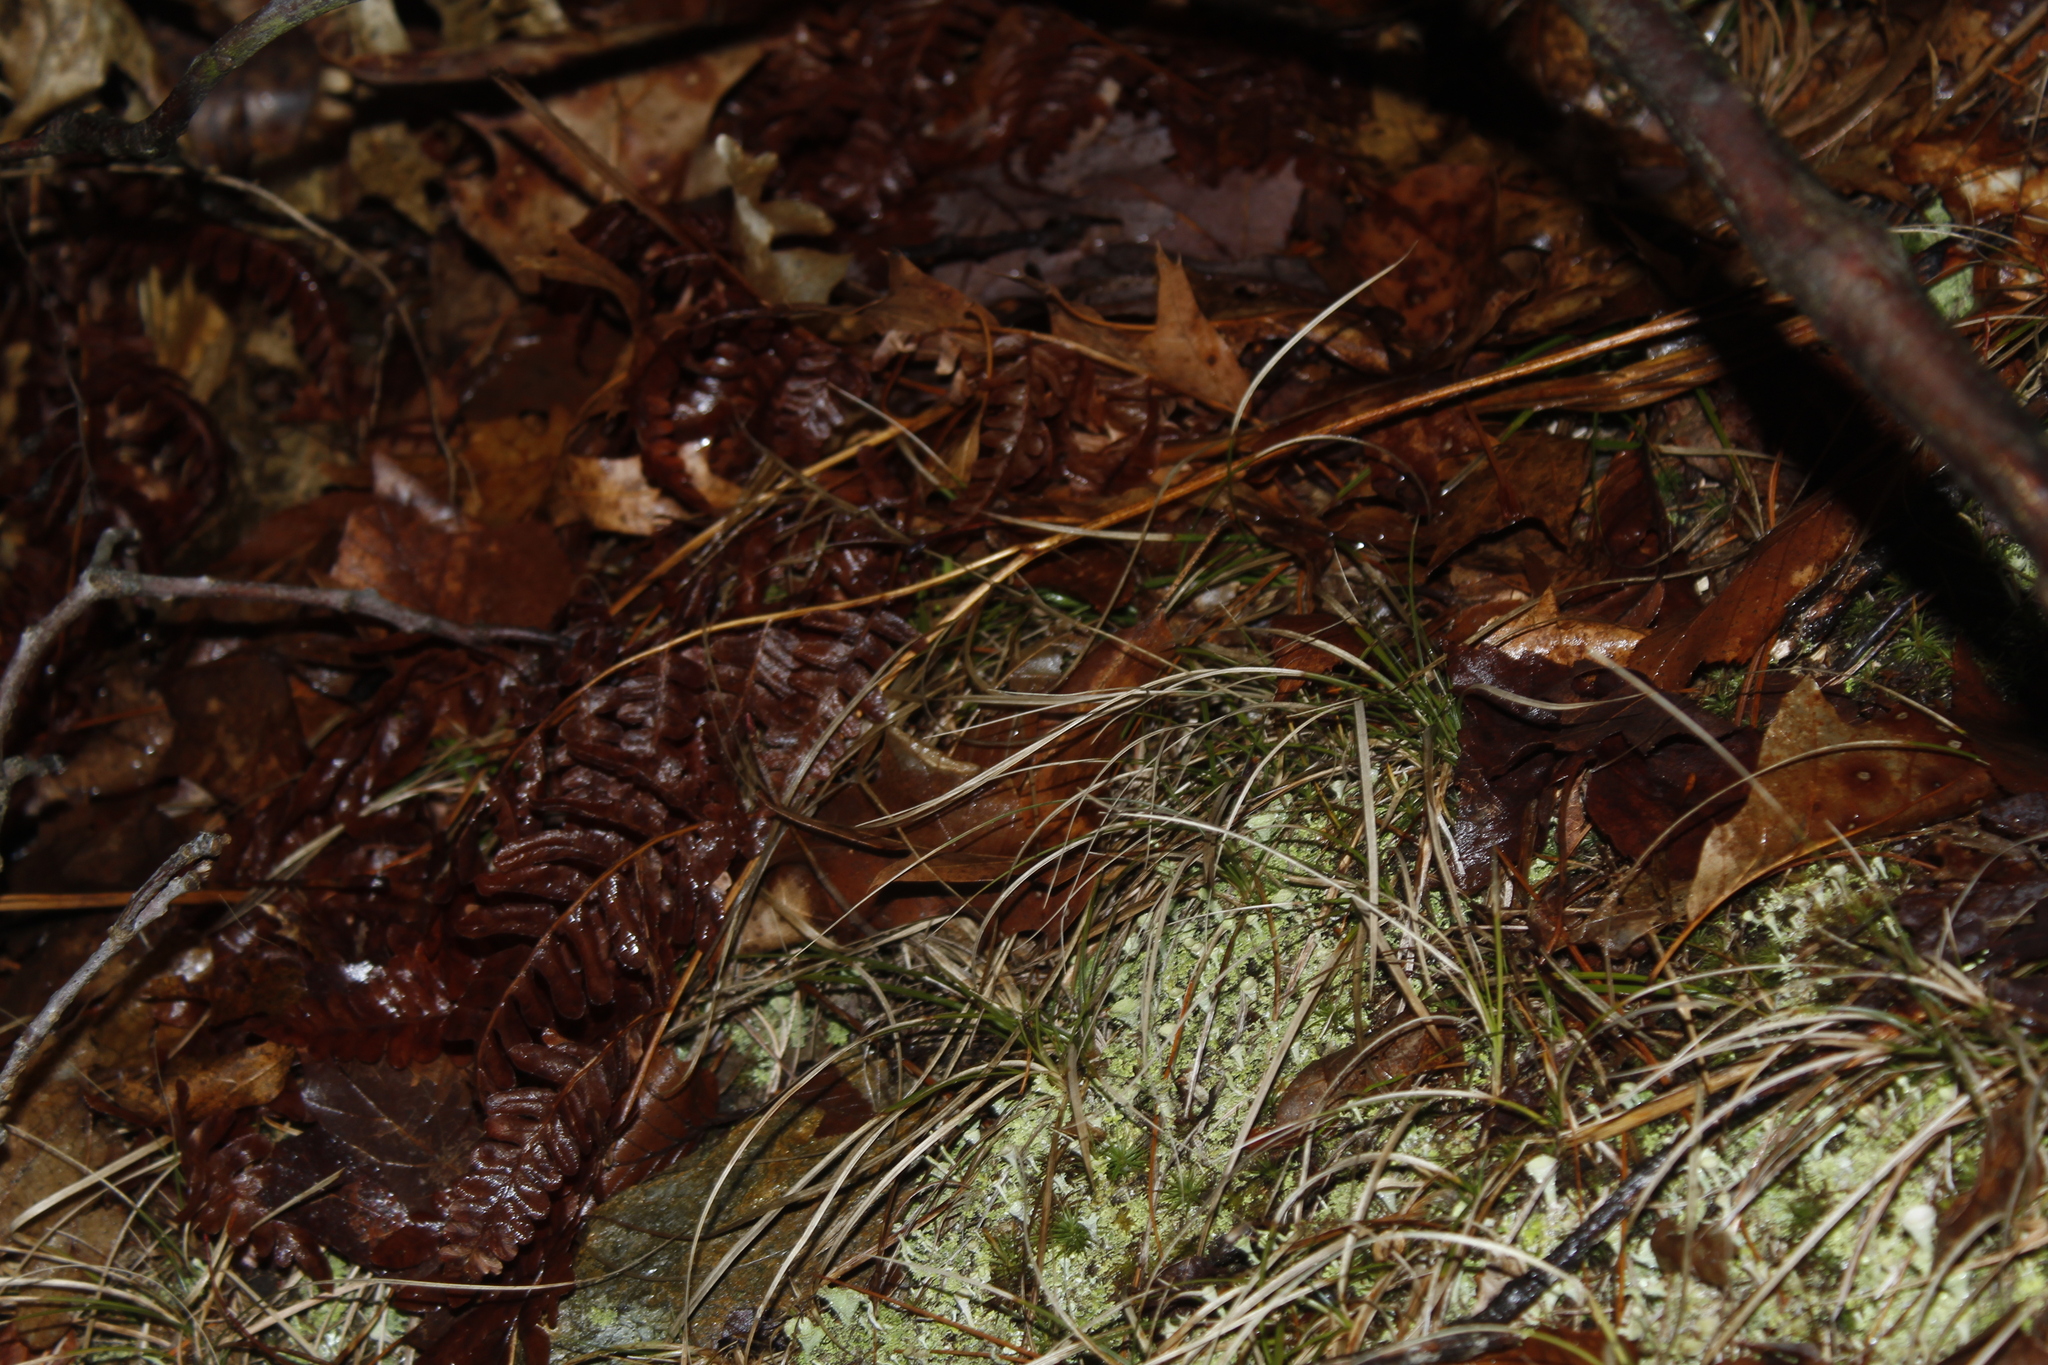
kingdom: Plantae
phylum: Tracheophyta
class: Polypodiopsida
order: Polypodiales
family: Dennstaedtiaceae
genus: Pteridium
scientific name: Pteridium aquilinum
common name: Bracken
